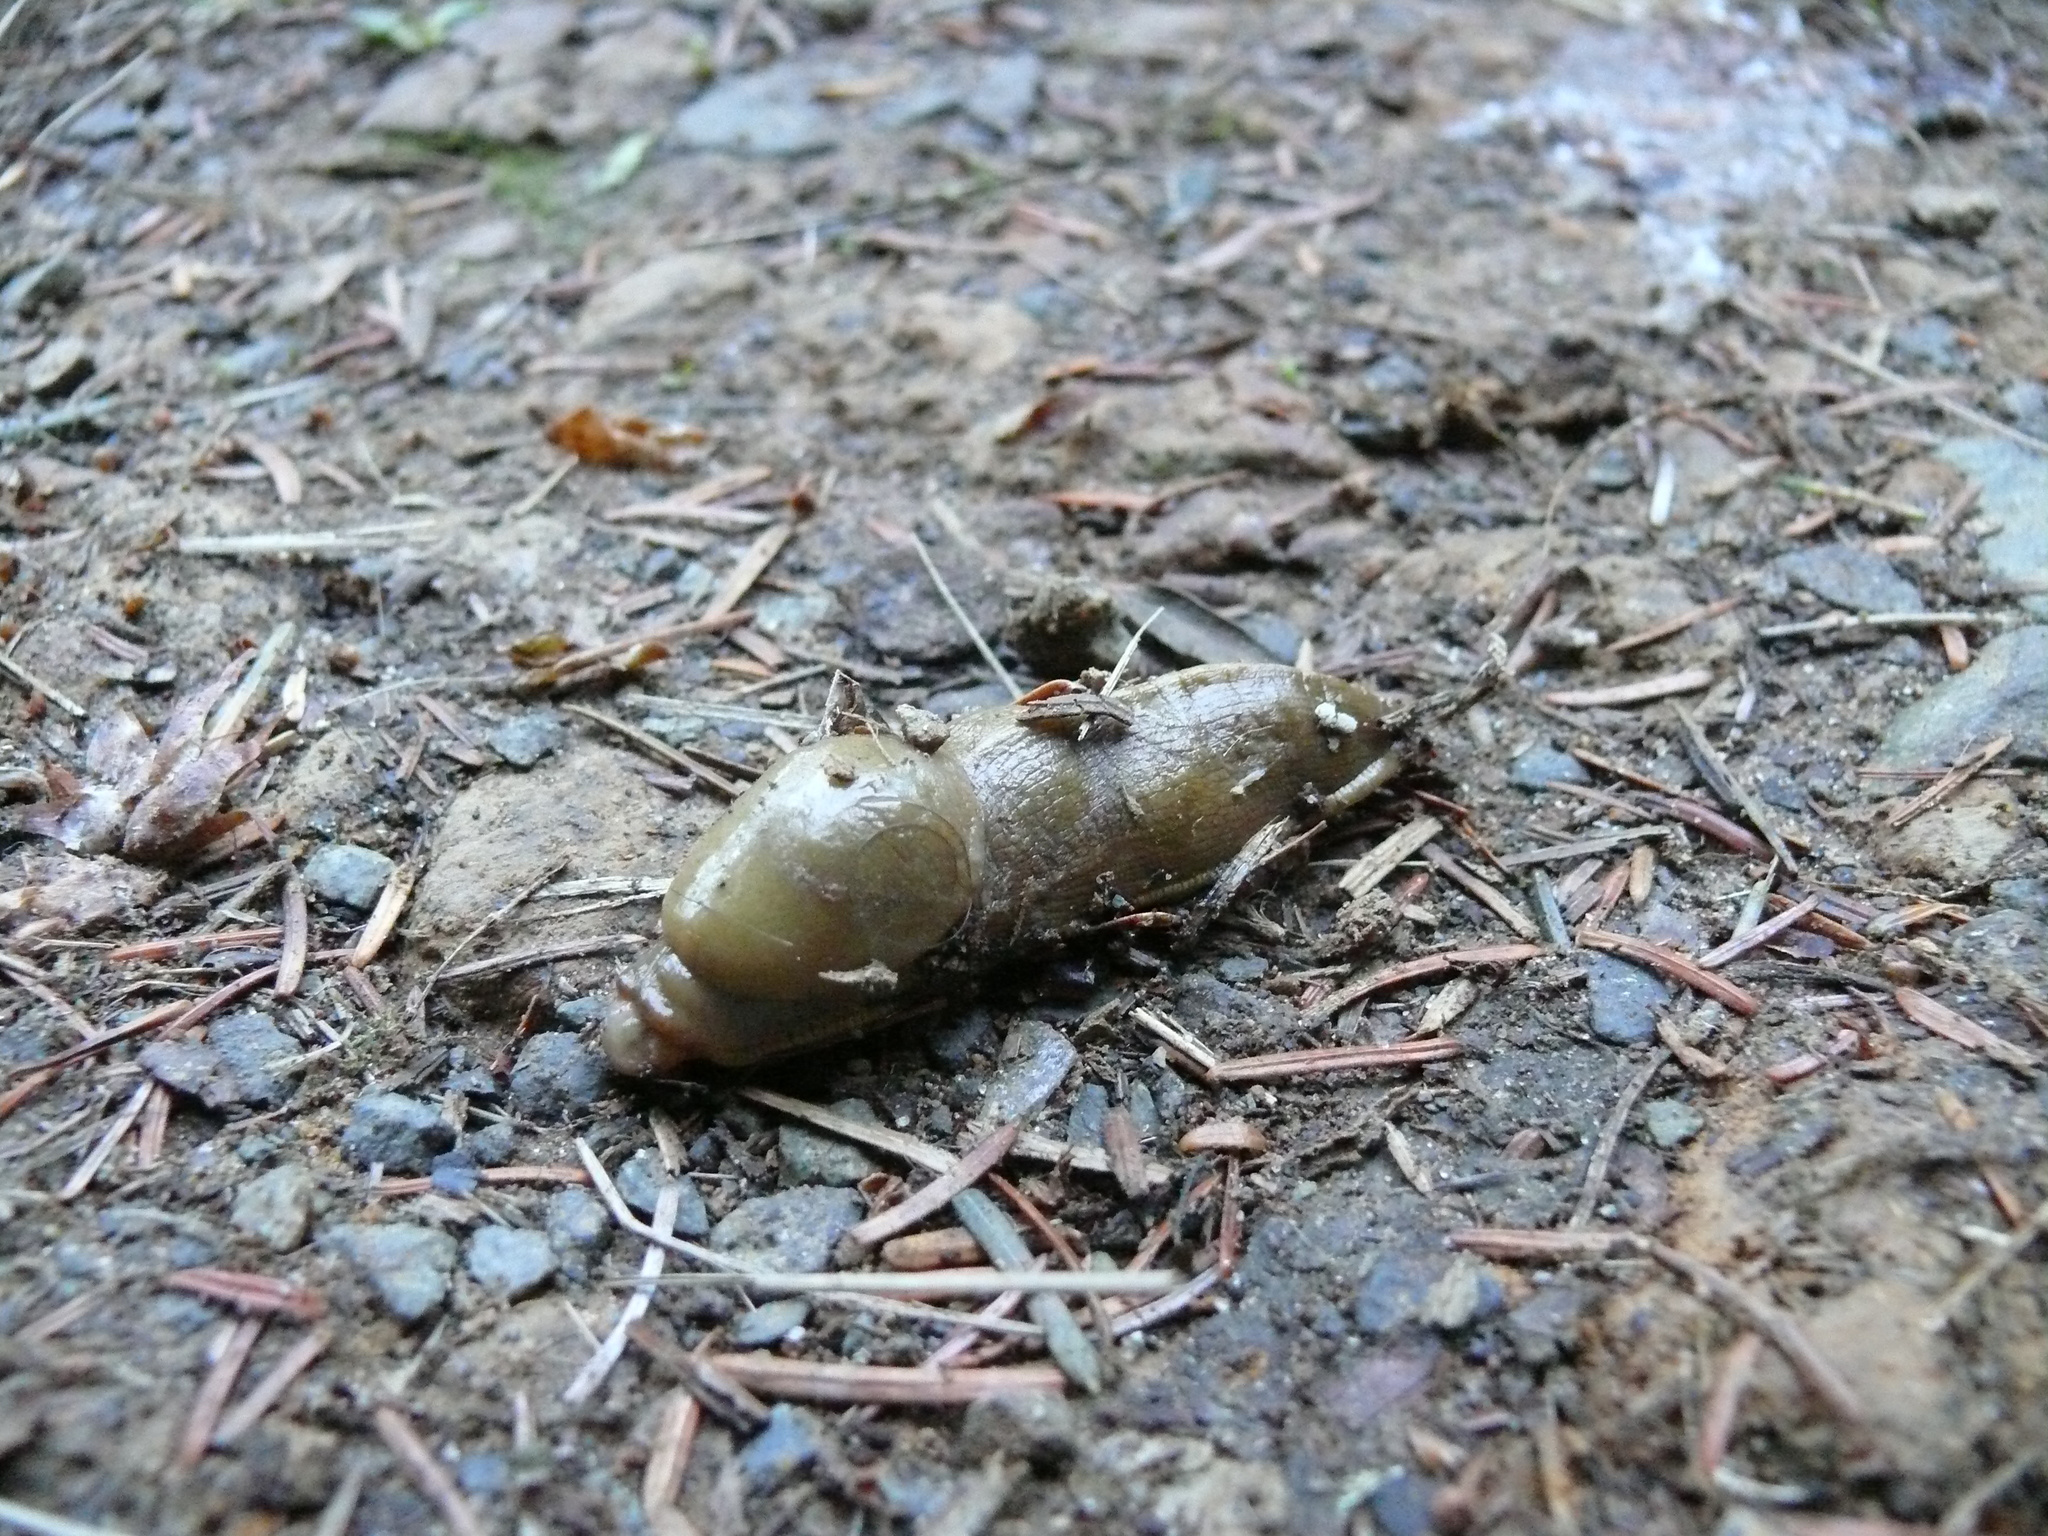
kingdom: Animalia
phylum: Mollusca
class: Gastropoda
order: Stylommatophora
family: Ariolimacidae
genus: Ariolimax
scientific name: Ariolimax columbianus
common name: Pacific banana slug
